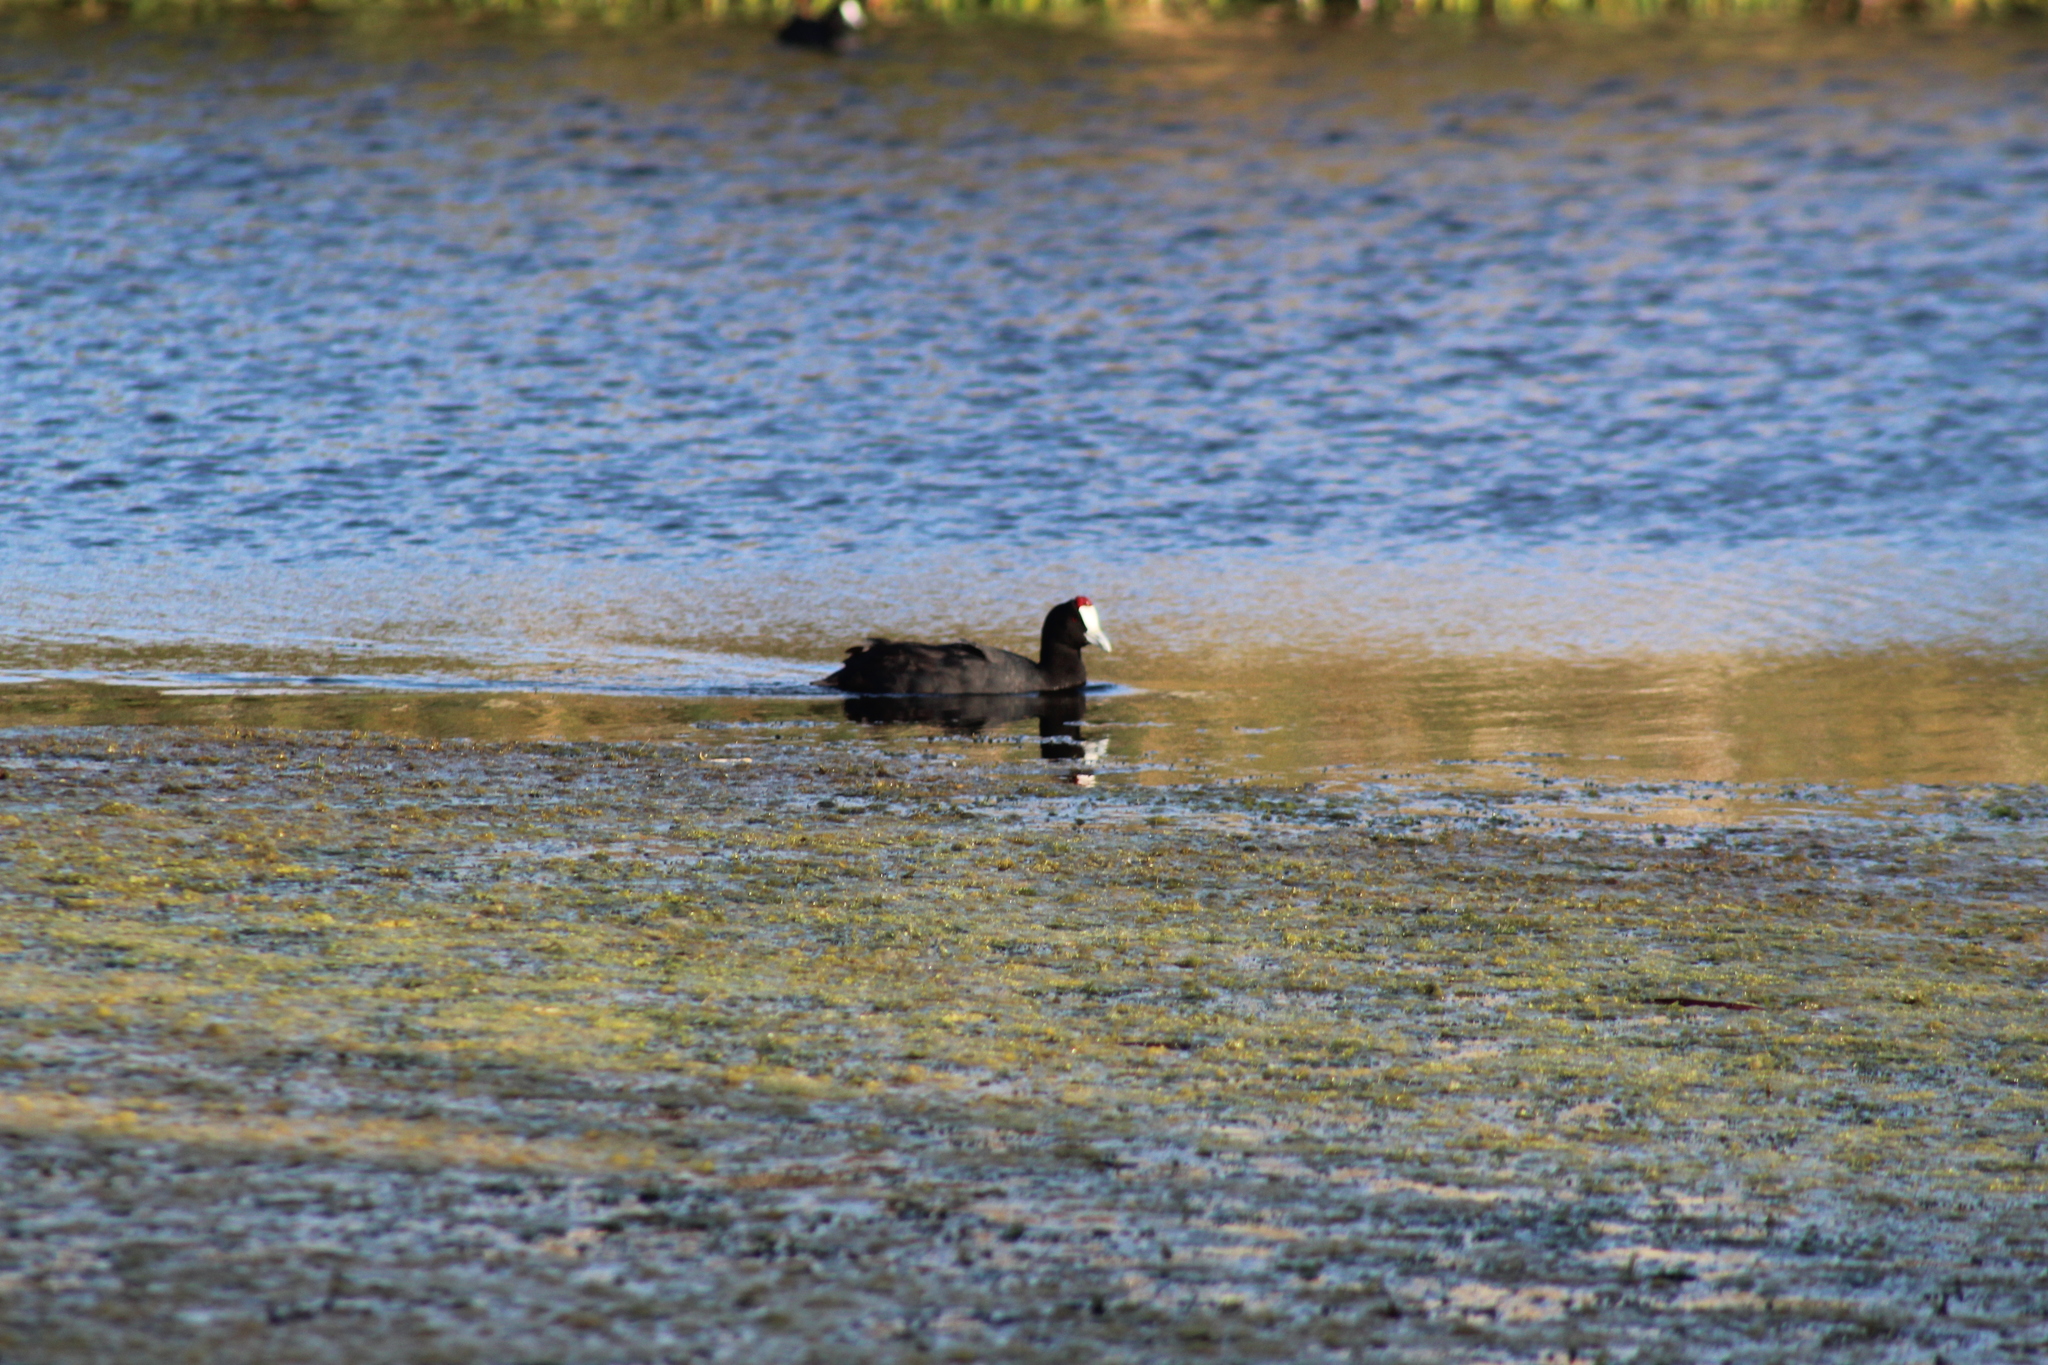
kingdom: Animalia
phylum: Chordata
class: Aves
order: Gruiformes
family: Rallidae
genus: Fulica
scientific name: Fulica cristata
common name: Red-knobbed coot
